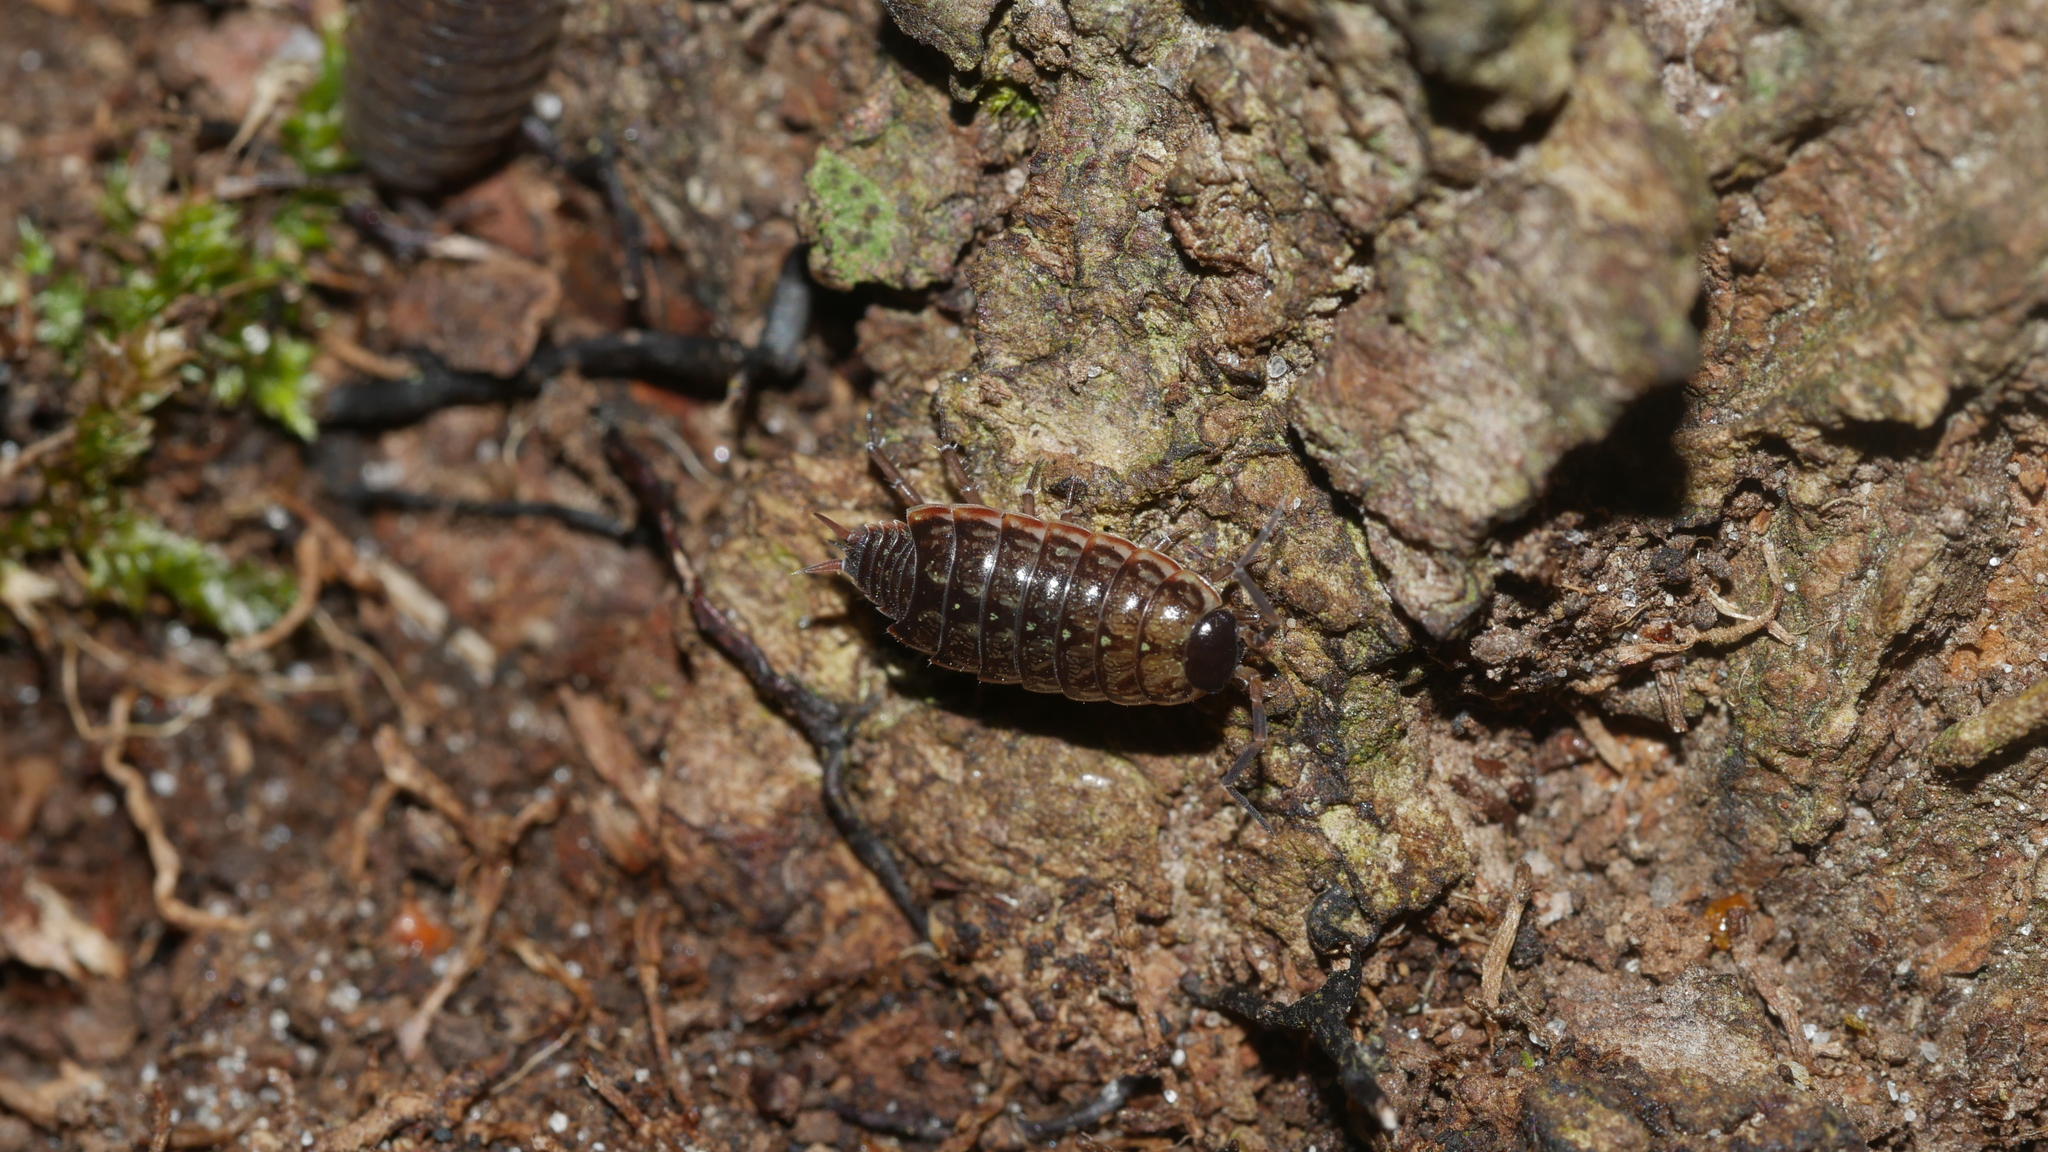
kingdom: Animalia
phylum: Arthropoda
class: Malacostraca
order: Isopoda
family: Philosciidae
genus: Philoscia
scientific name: Philoscia muscorum
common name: Common striped woodlouse
